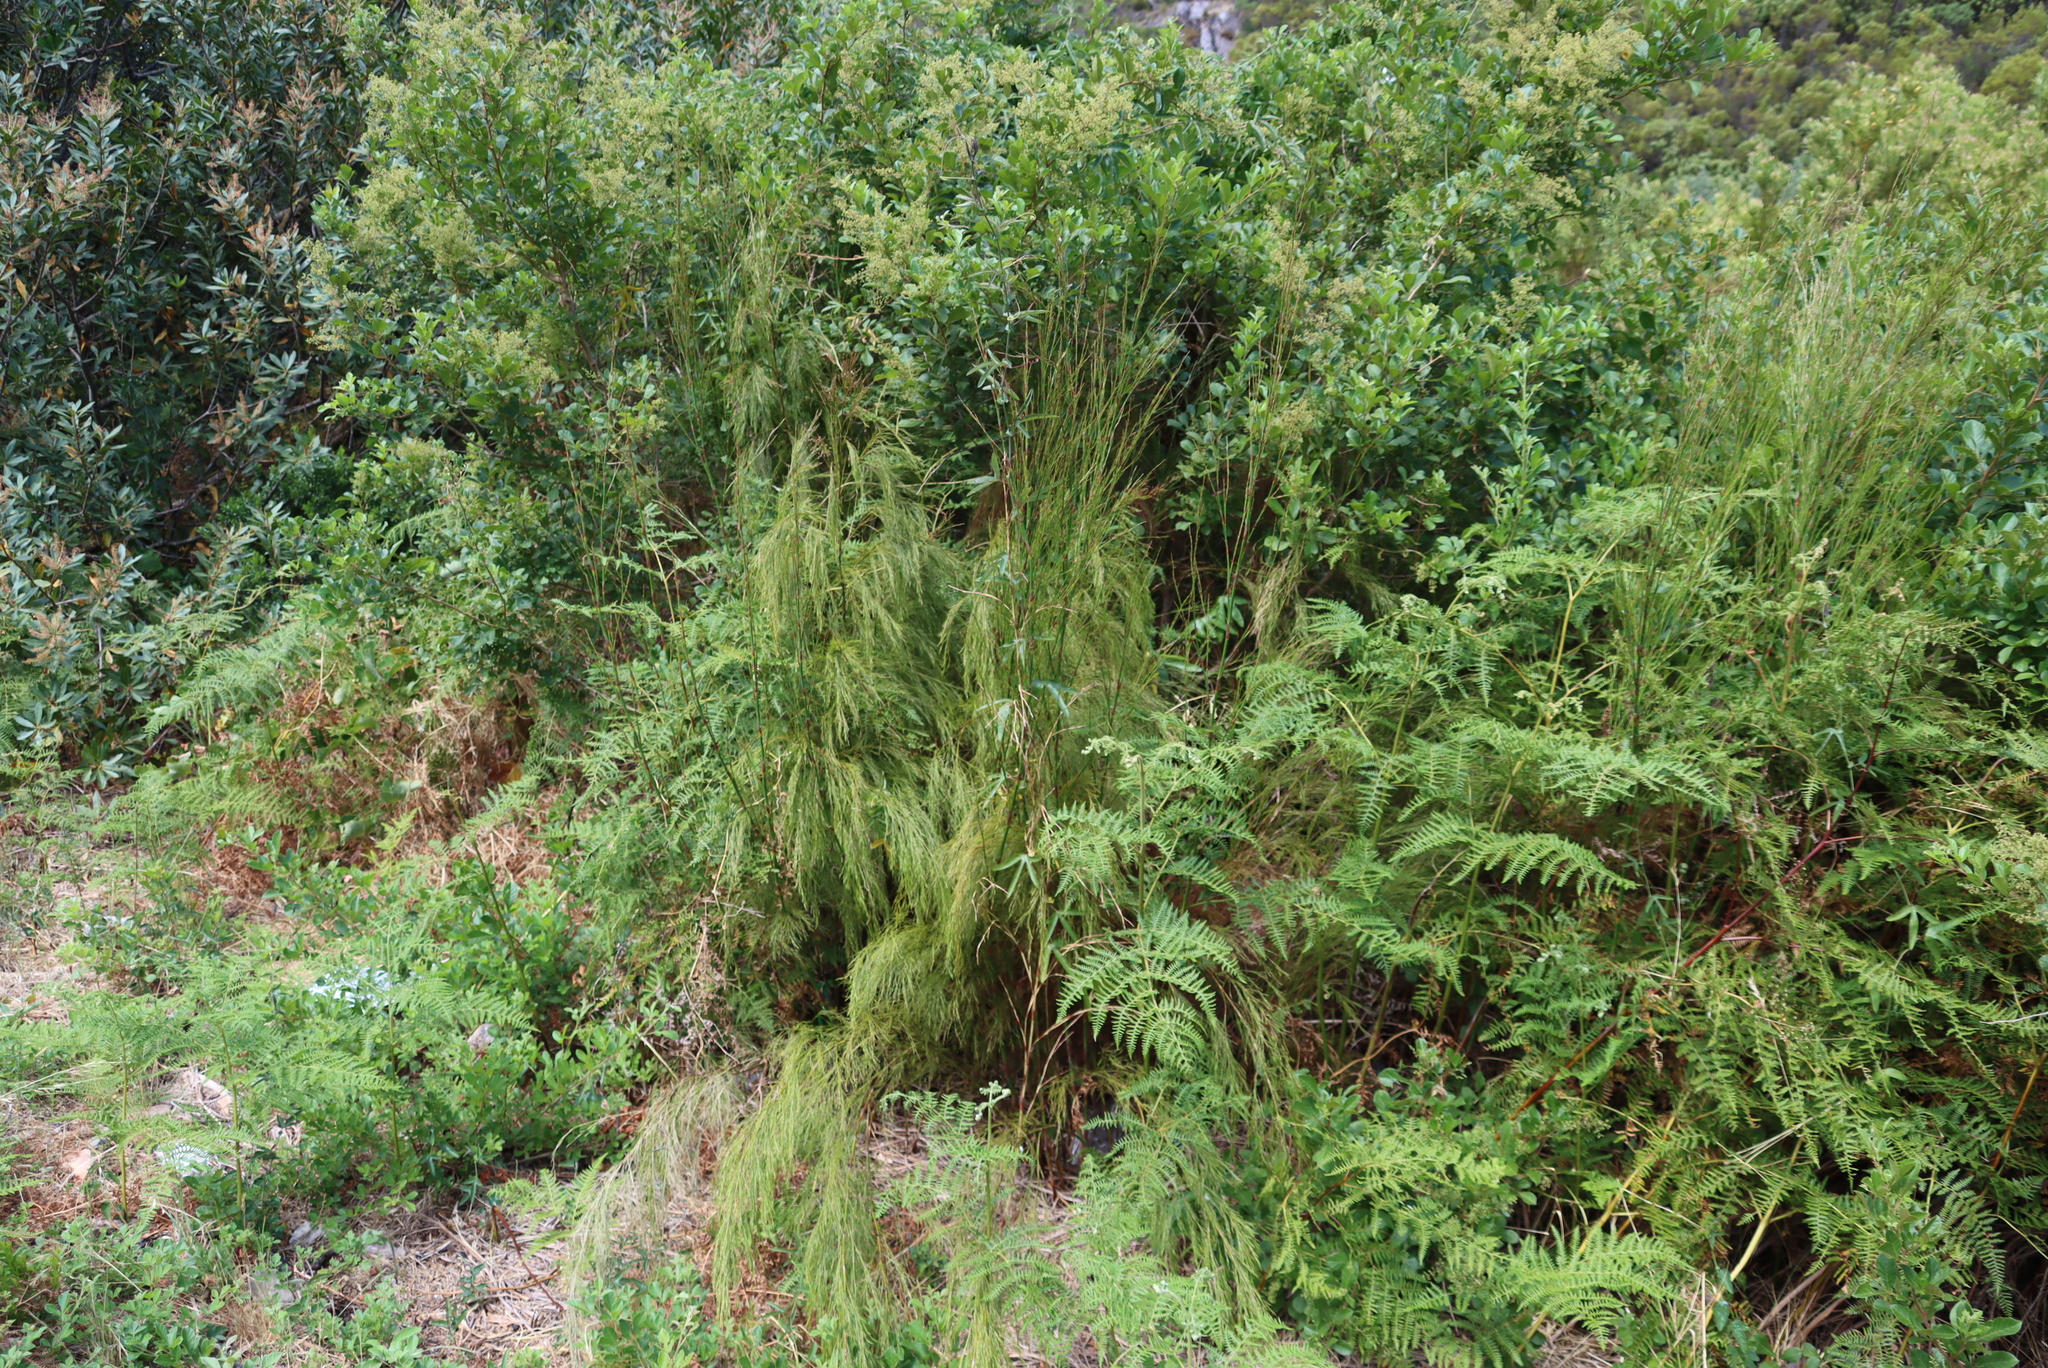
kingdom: Plantae
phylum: Tracheophyta
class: Polypodiopsida
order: Polypodiales
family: Dennstaedtiaceae
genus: Pteridium
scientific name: Pteridium aquilinum
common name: Bracken
